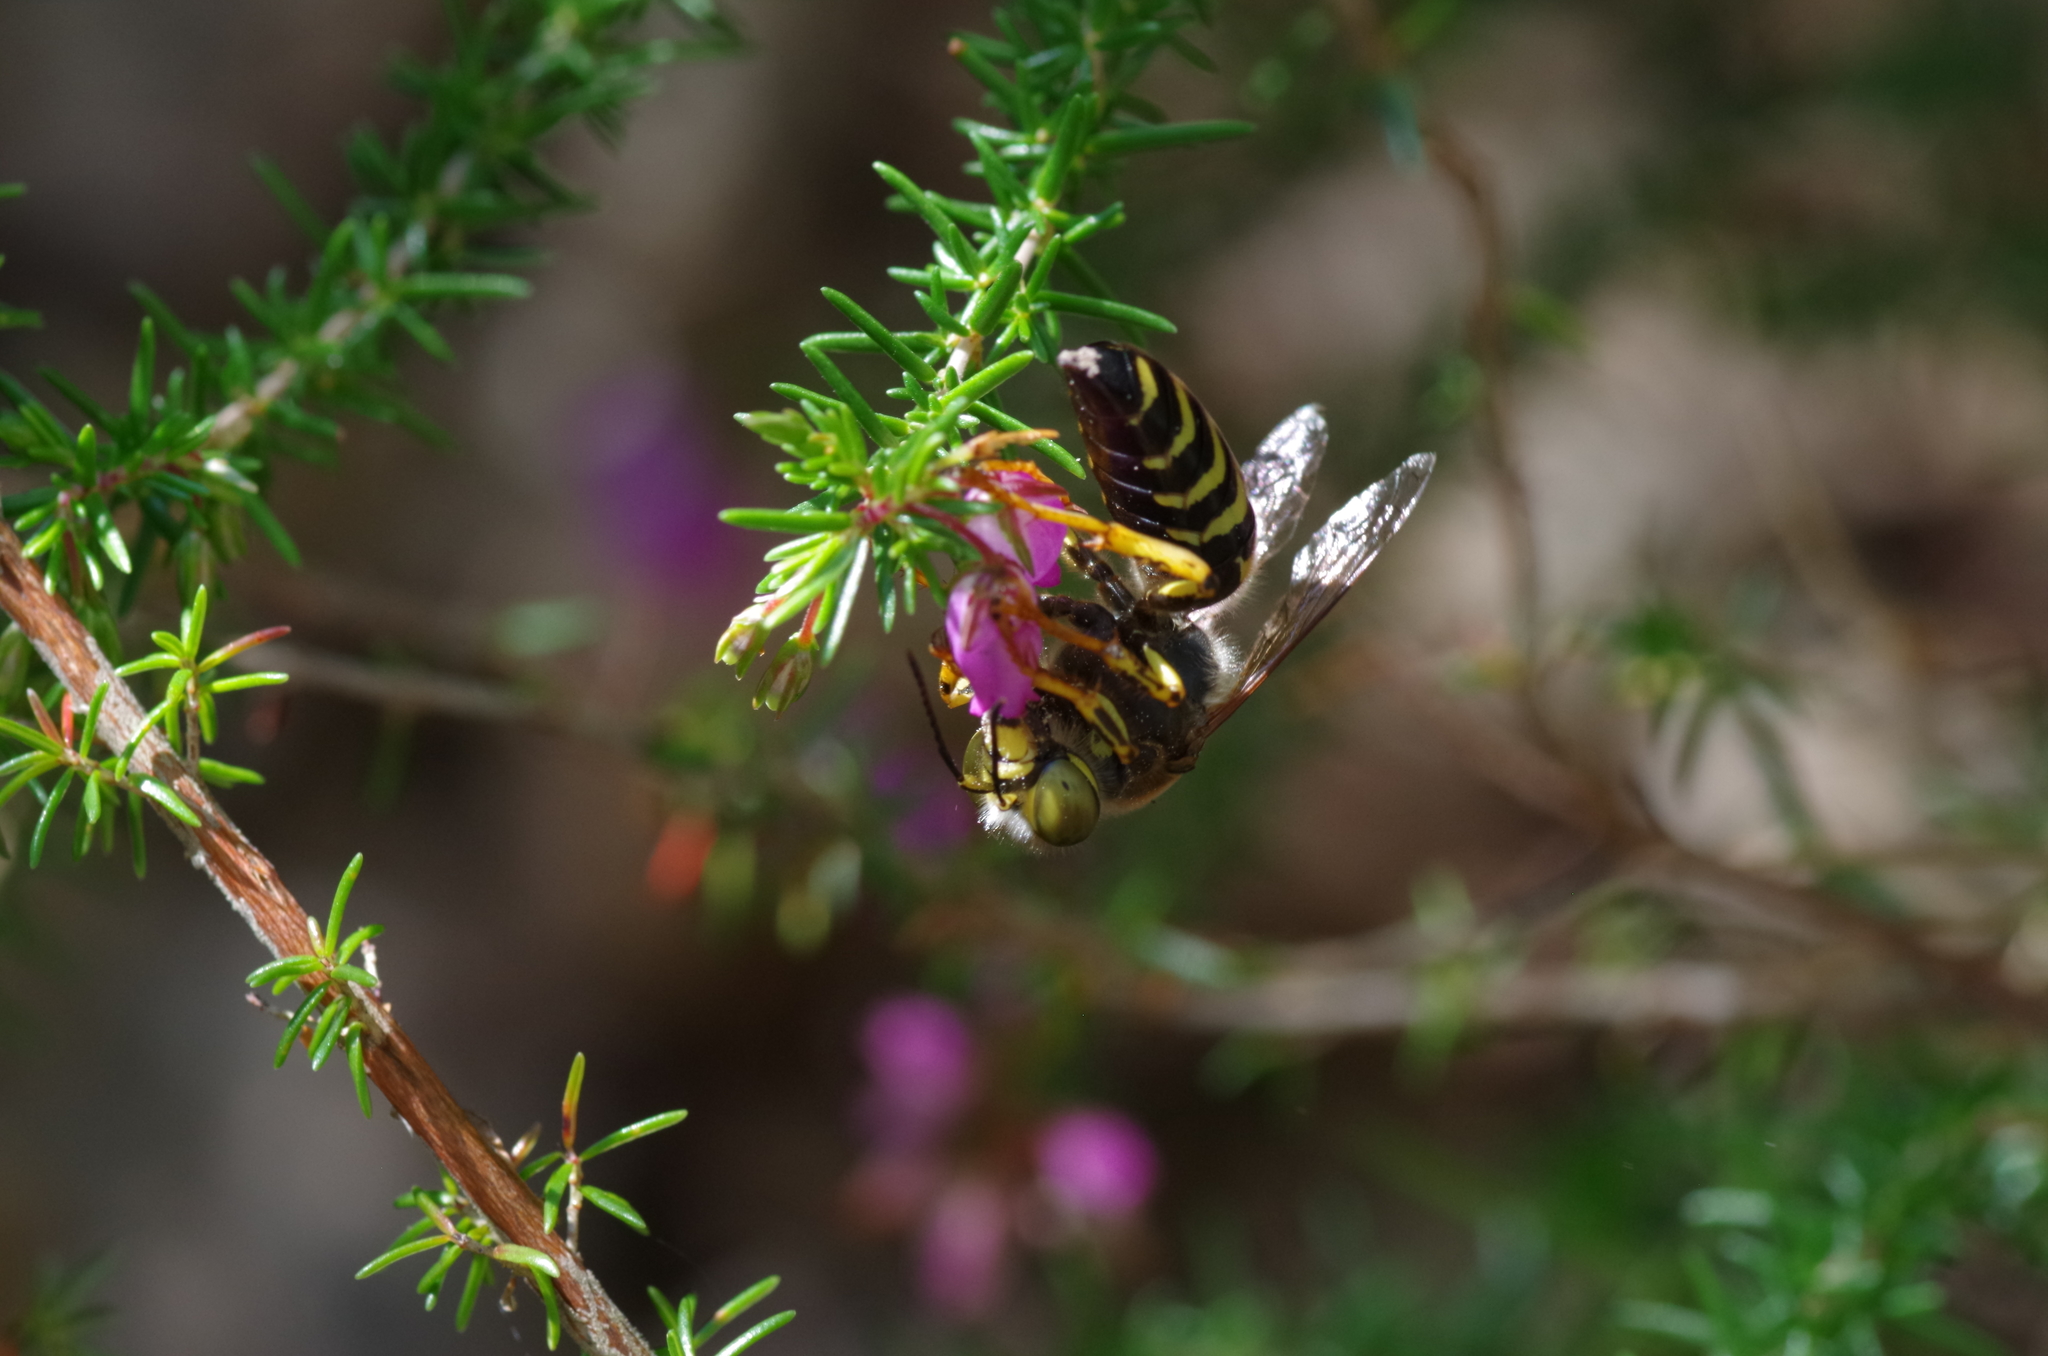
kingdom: Animalia
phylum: Arthropoda
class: Insecta
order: Hymenoptera
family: Crabronidae
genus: Bembix
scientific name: Bembix rostrata
